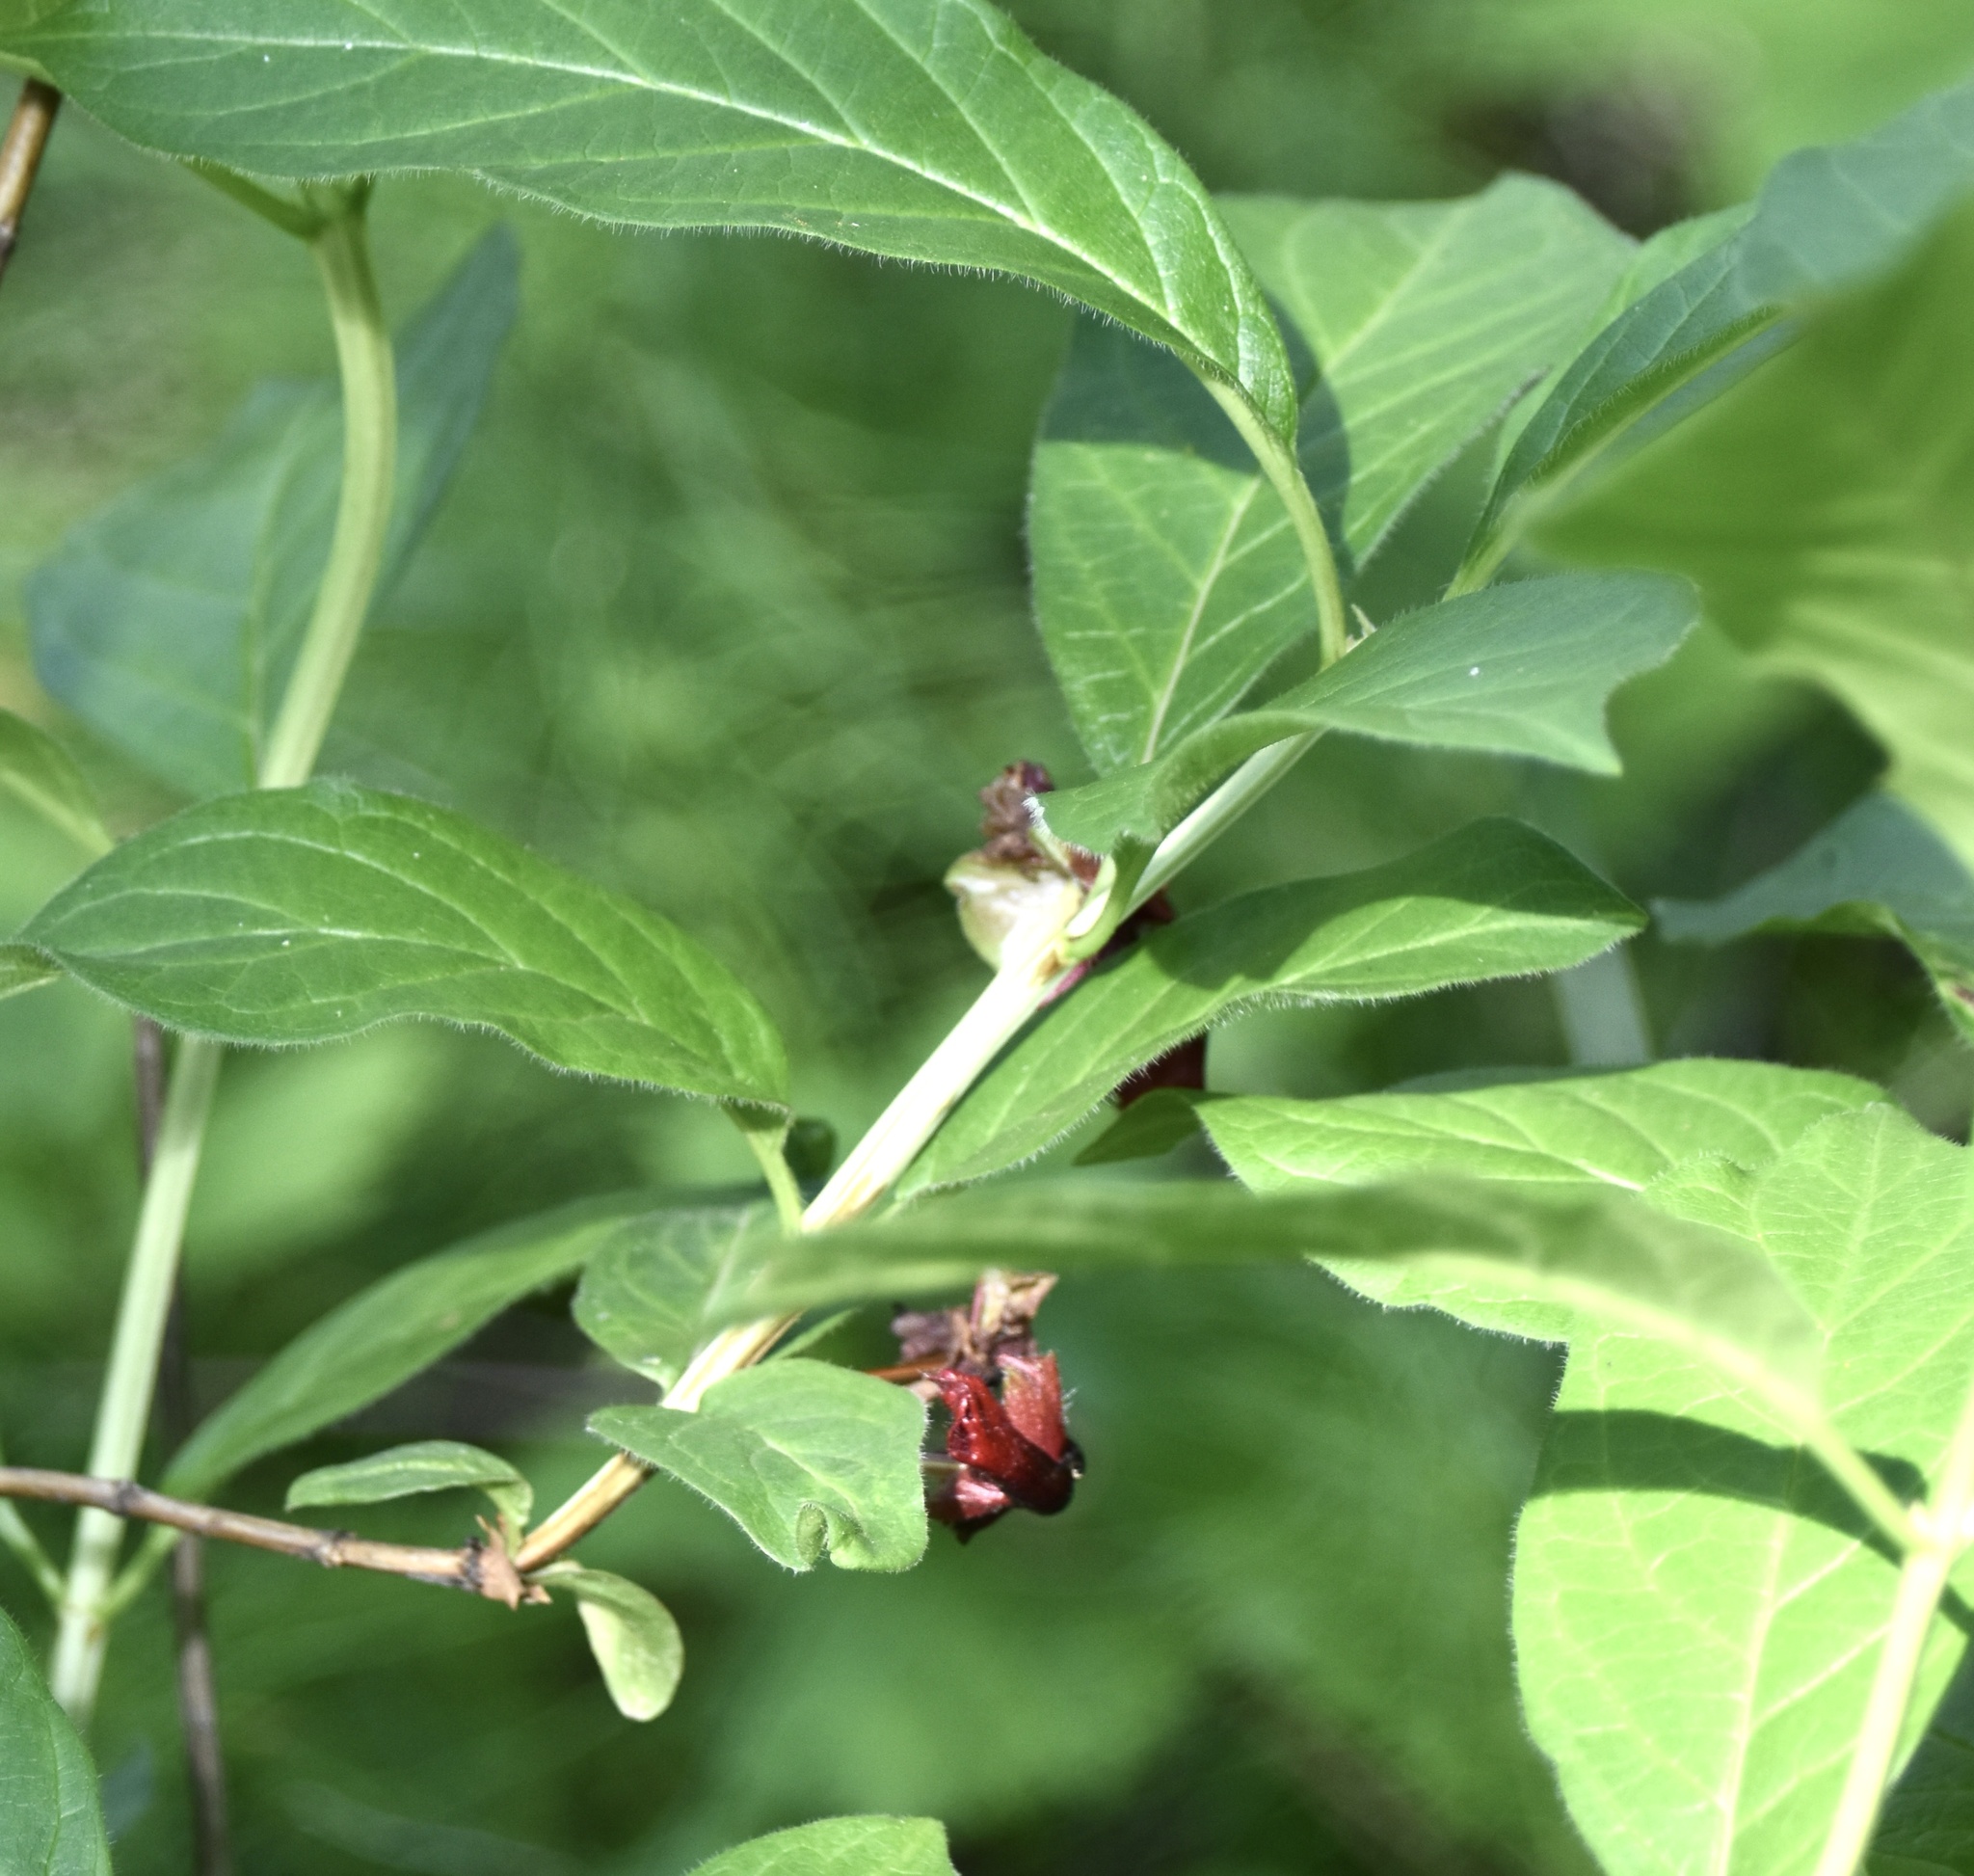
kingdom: Plantae
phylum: Tracheophyta
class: Magnoliopsida
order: Dipsacales
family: Caprifoliaceae
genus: Lonicera
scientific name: Lonicera involucrata
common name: Californian honeysuckle
